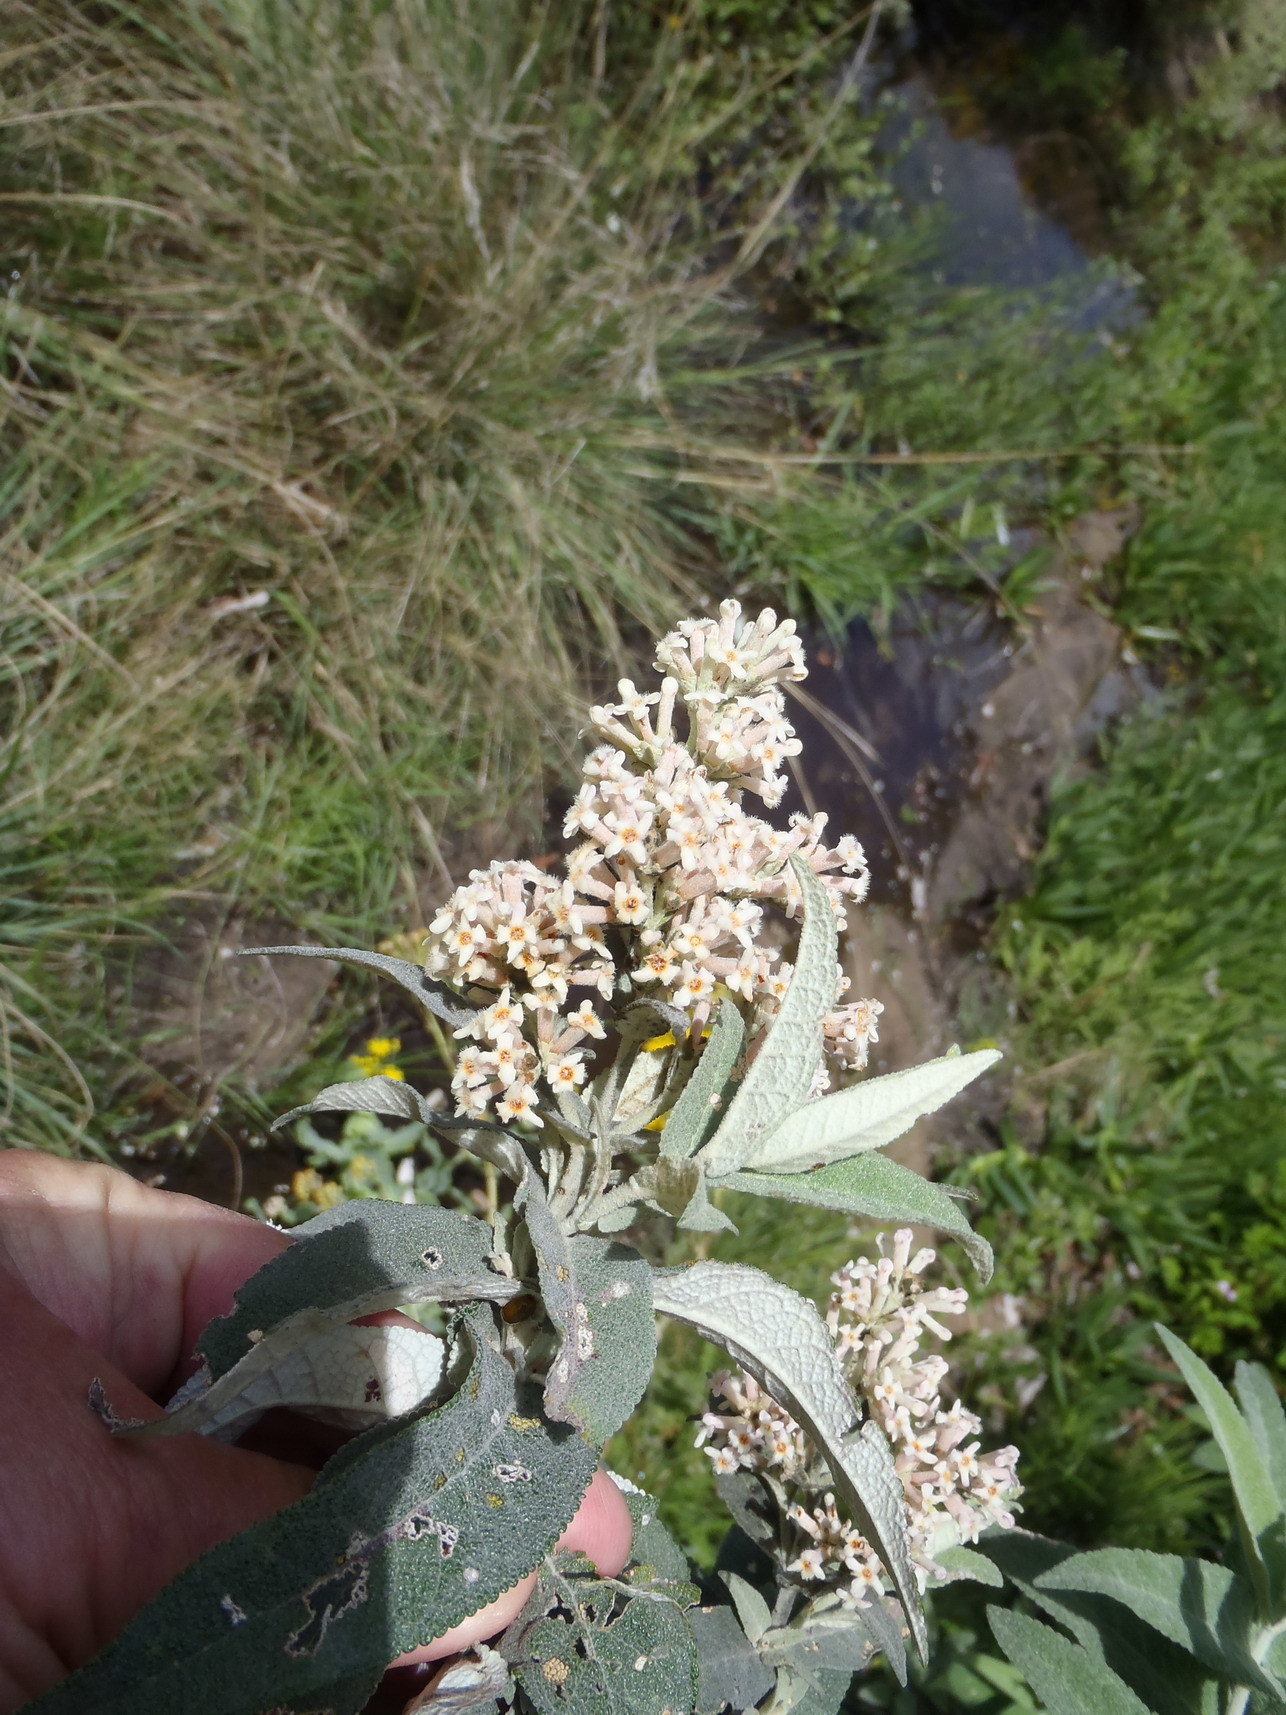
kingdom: Plantae
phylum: Tracheophyta
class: Magnoliopsida
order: Lamiales
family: Scrophulariaceae
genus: Buddleja
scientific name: Buddleja salviifolia
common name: Sagewood
